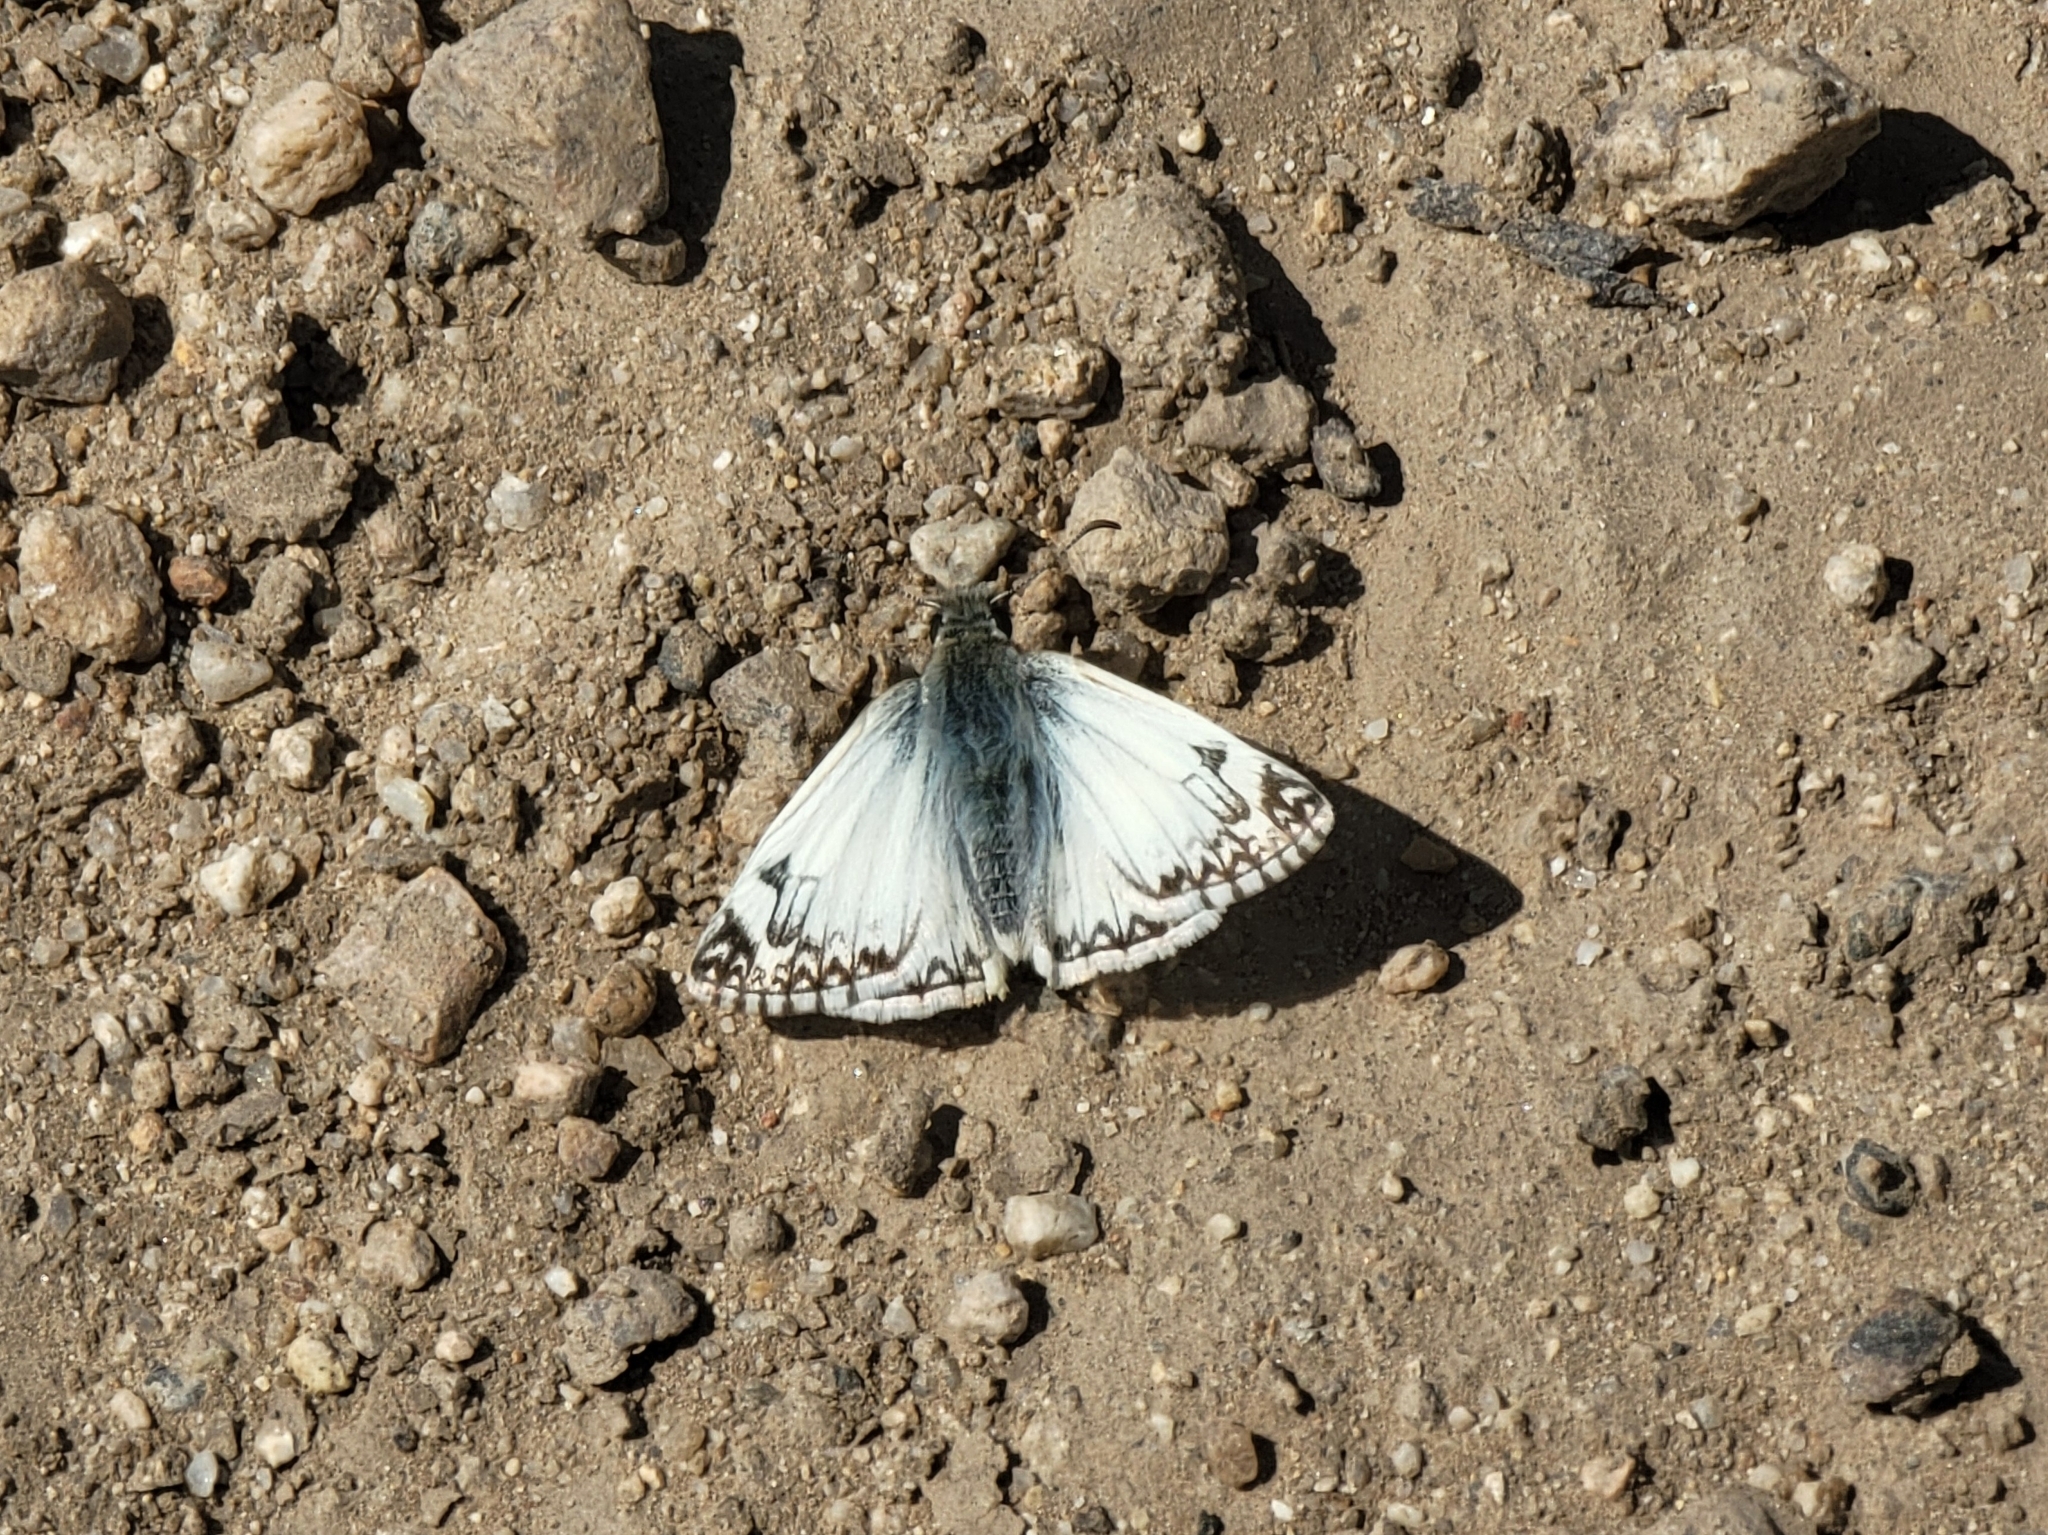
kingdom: Animalia
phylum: Arthropoda
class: Insecta
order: Lepidoptera
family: Hesperiidae
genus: Heliopetes
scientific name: Heliopetes ericetorum
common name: Northern white-skipper
